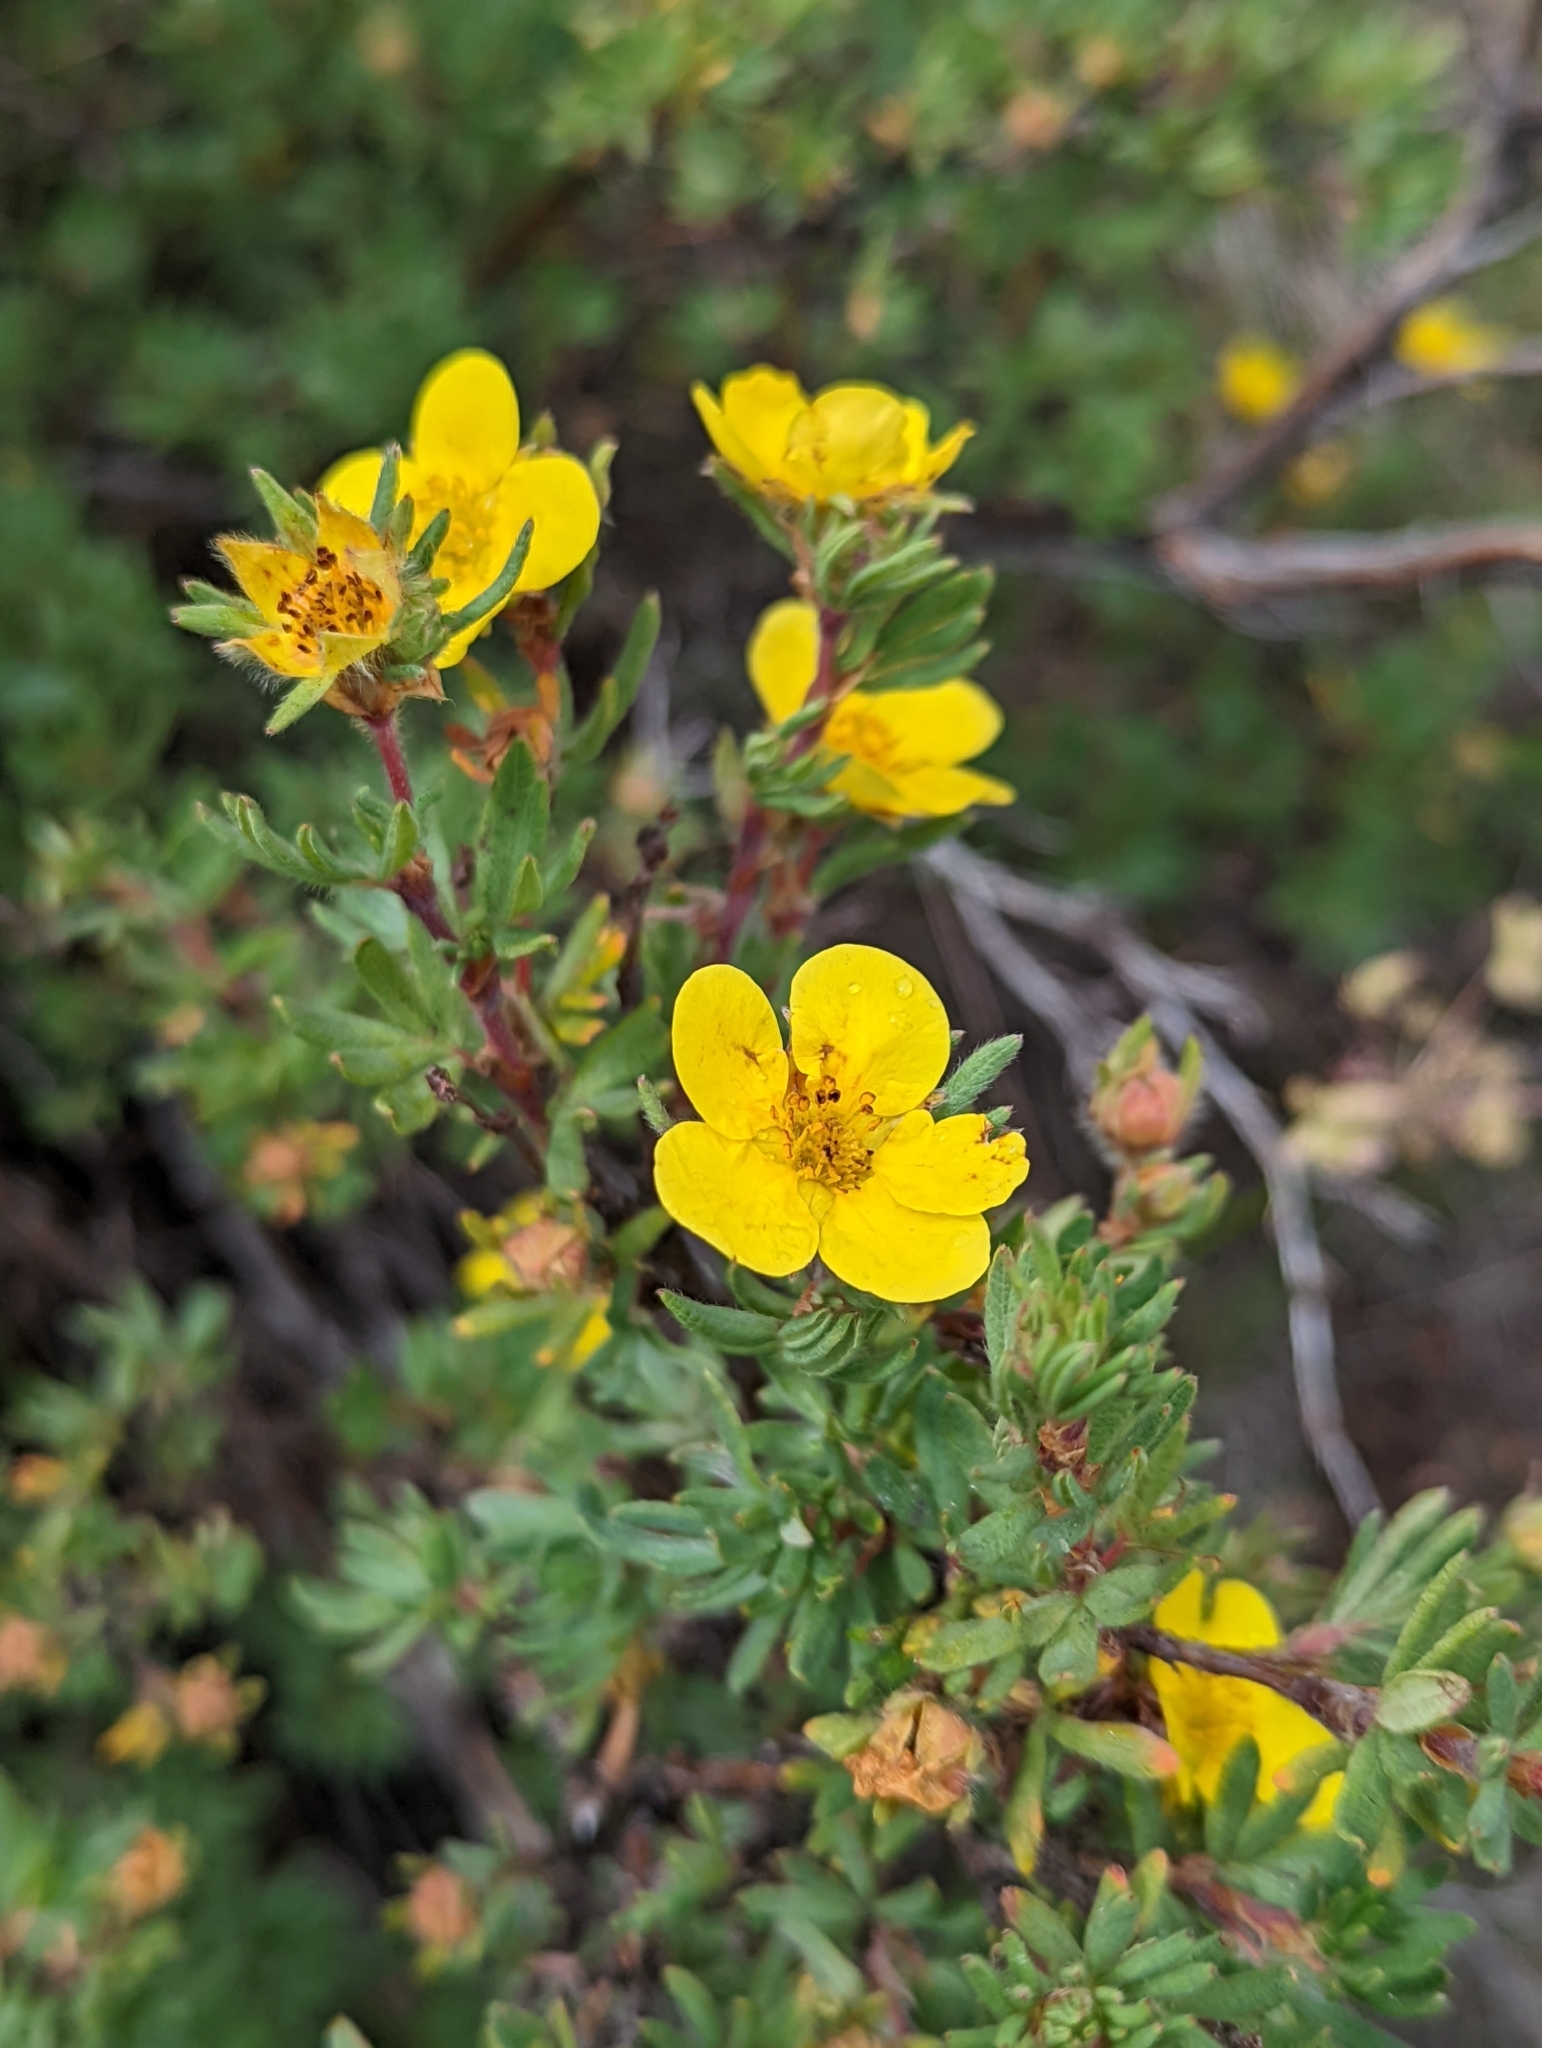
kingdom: Plantae
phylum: Tracheophyta
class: Magnoliopsida
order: Rosales
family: Rosaceae
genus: Dasiphora
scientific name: Dasiphora fruticosa
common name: Shrubby cinquefoil
